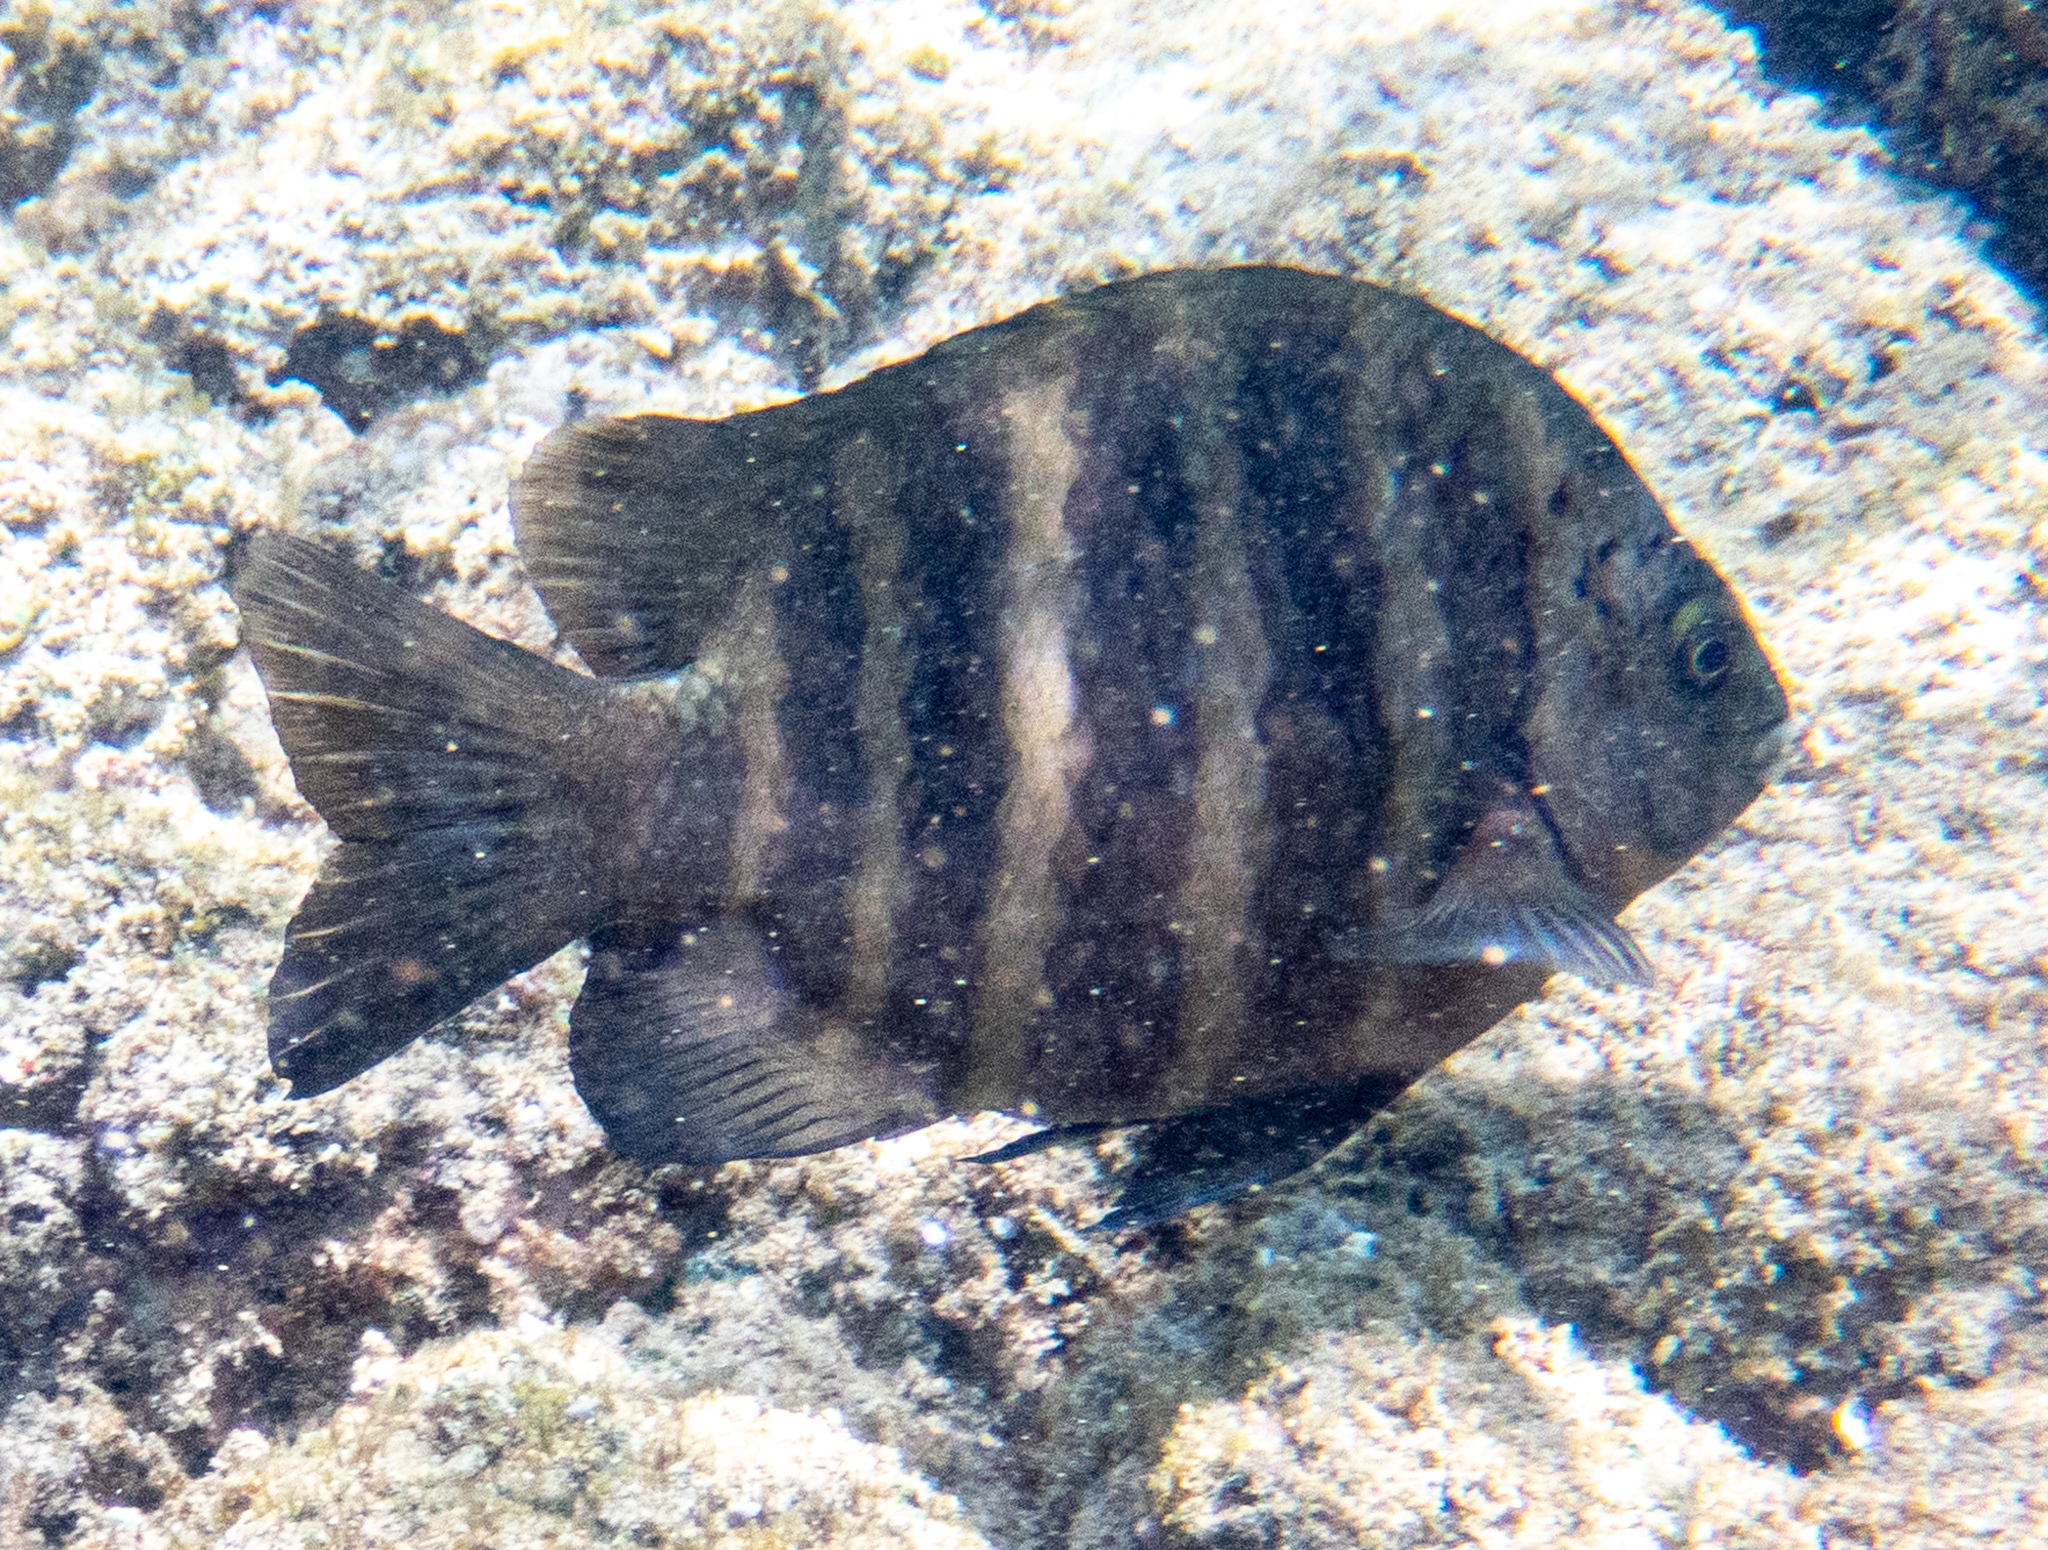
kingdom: Animalia
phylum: Chordata
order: Perciformes
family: Pomacentridae
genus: Abudefduf
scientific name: Abudefduf sordidus
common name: Blackspot sergeant
